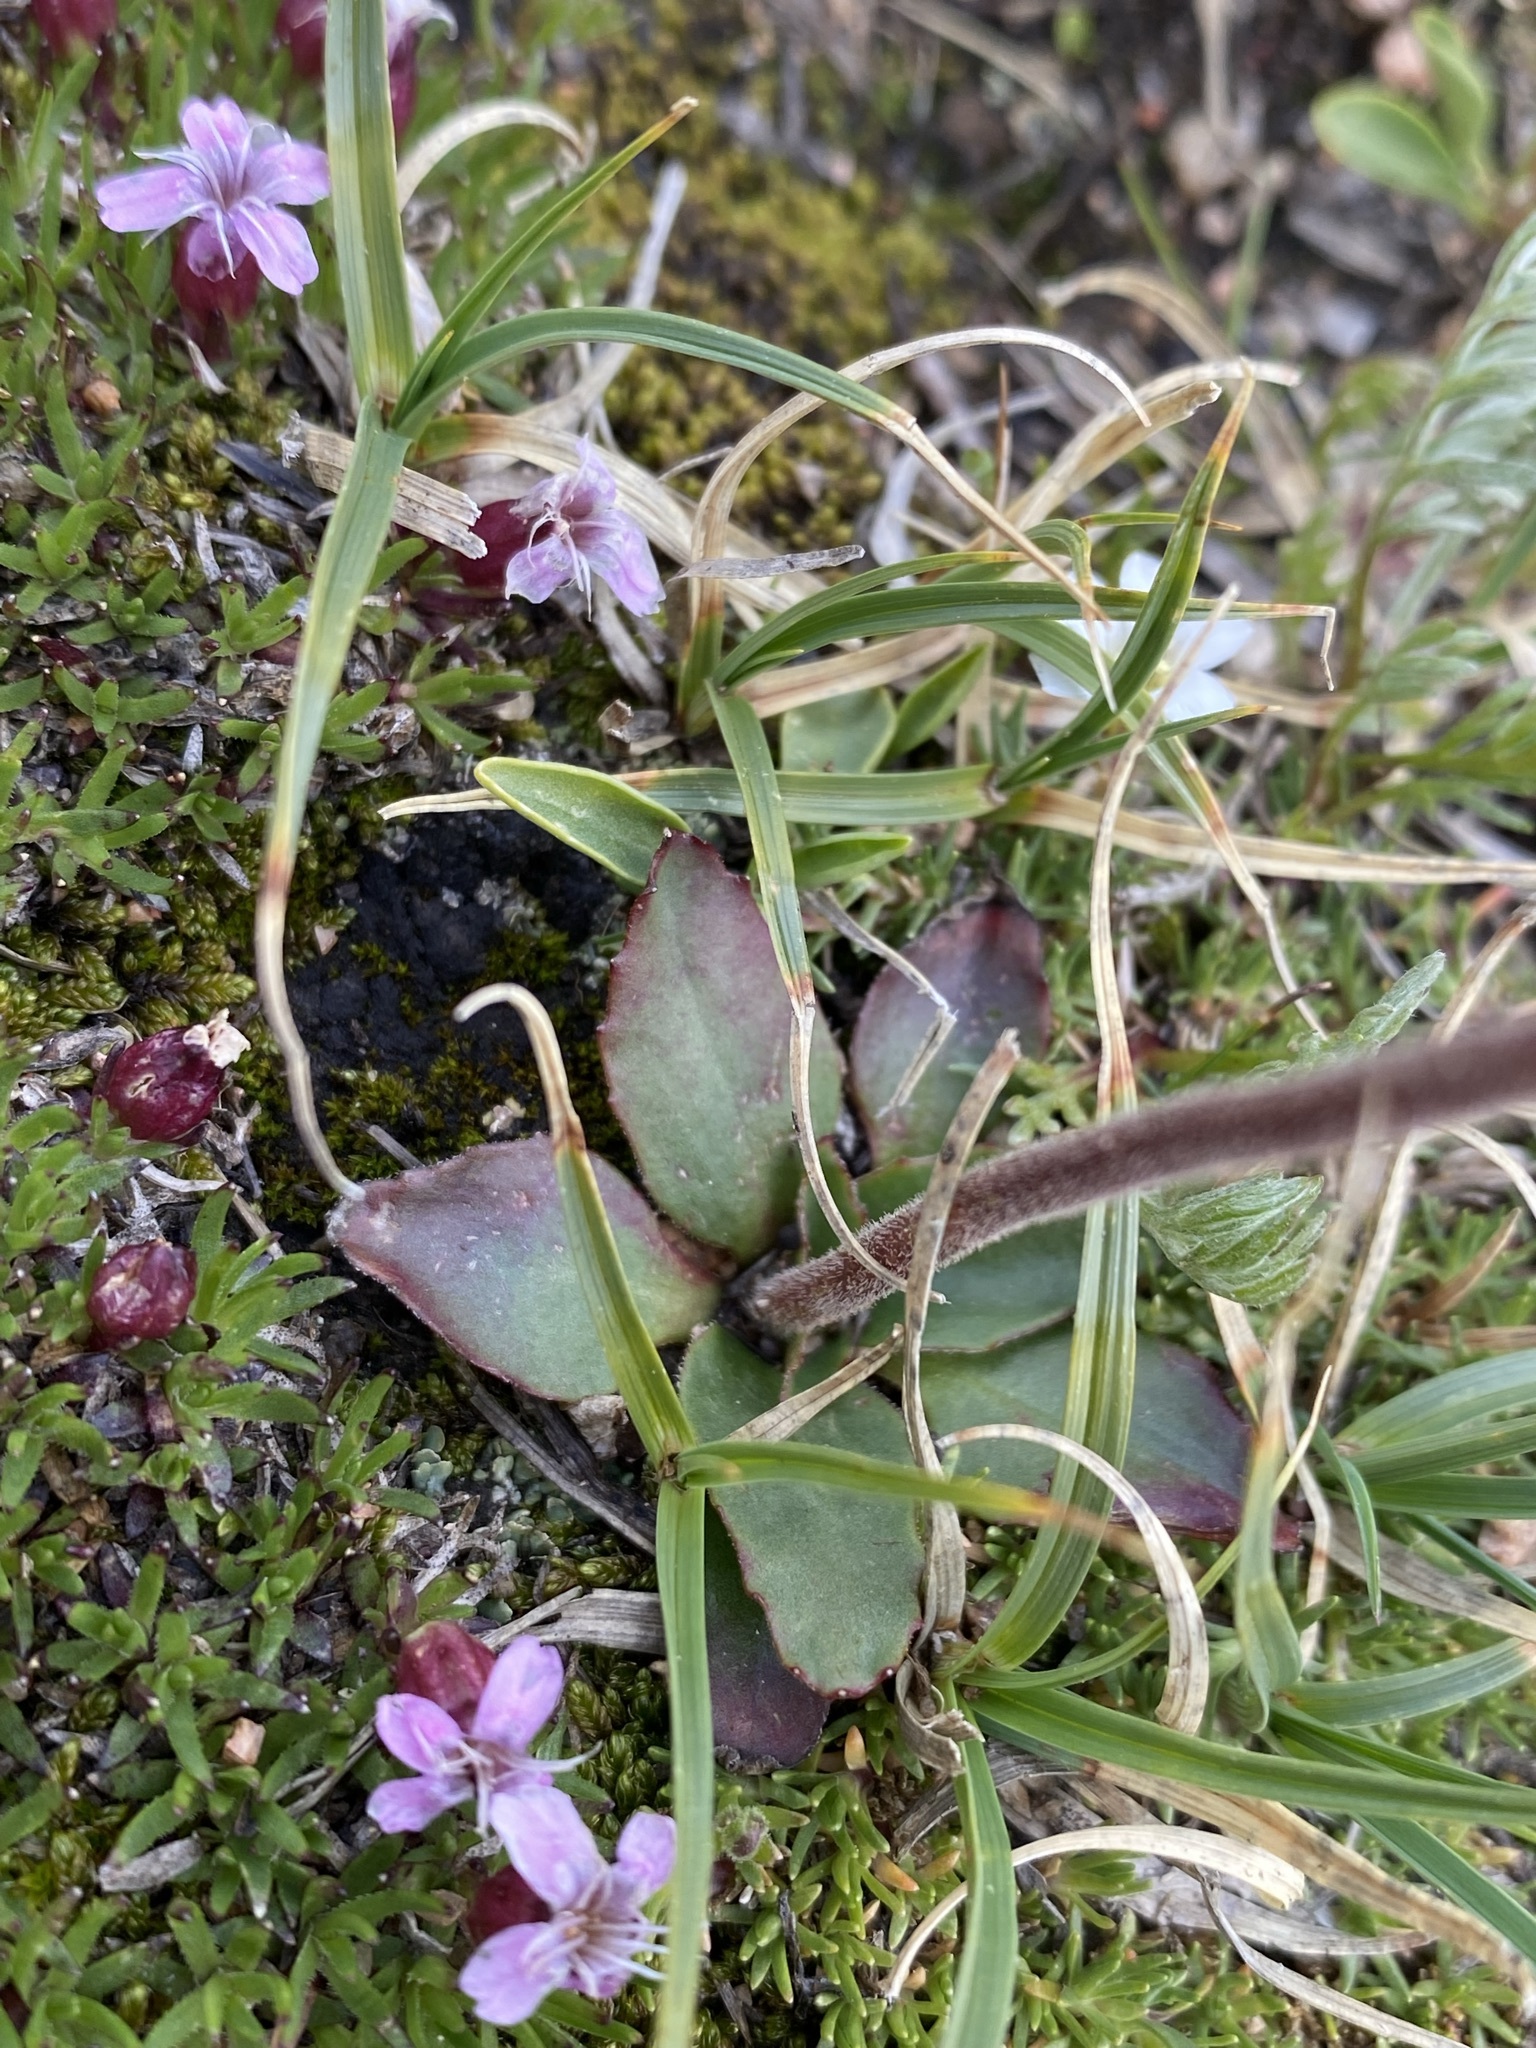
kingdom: Plantae
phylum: Tracheophyta
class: Magnoliopsida
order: Saxifragales
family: Saxifragaceae
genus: Micranthes
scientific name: Micranthes rhomboidea
